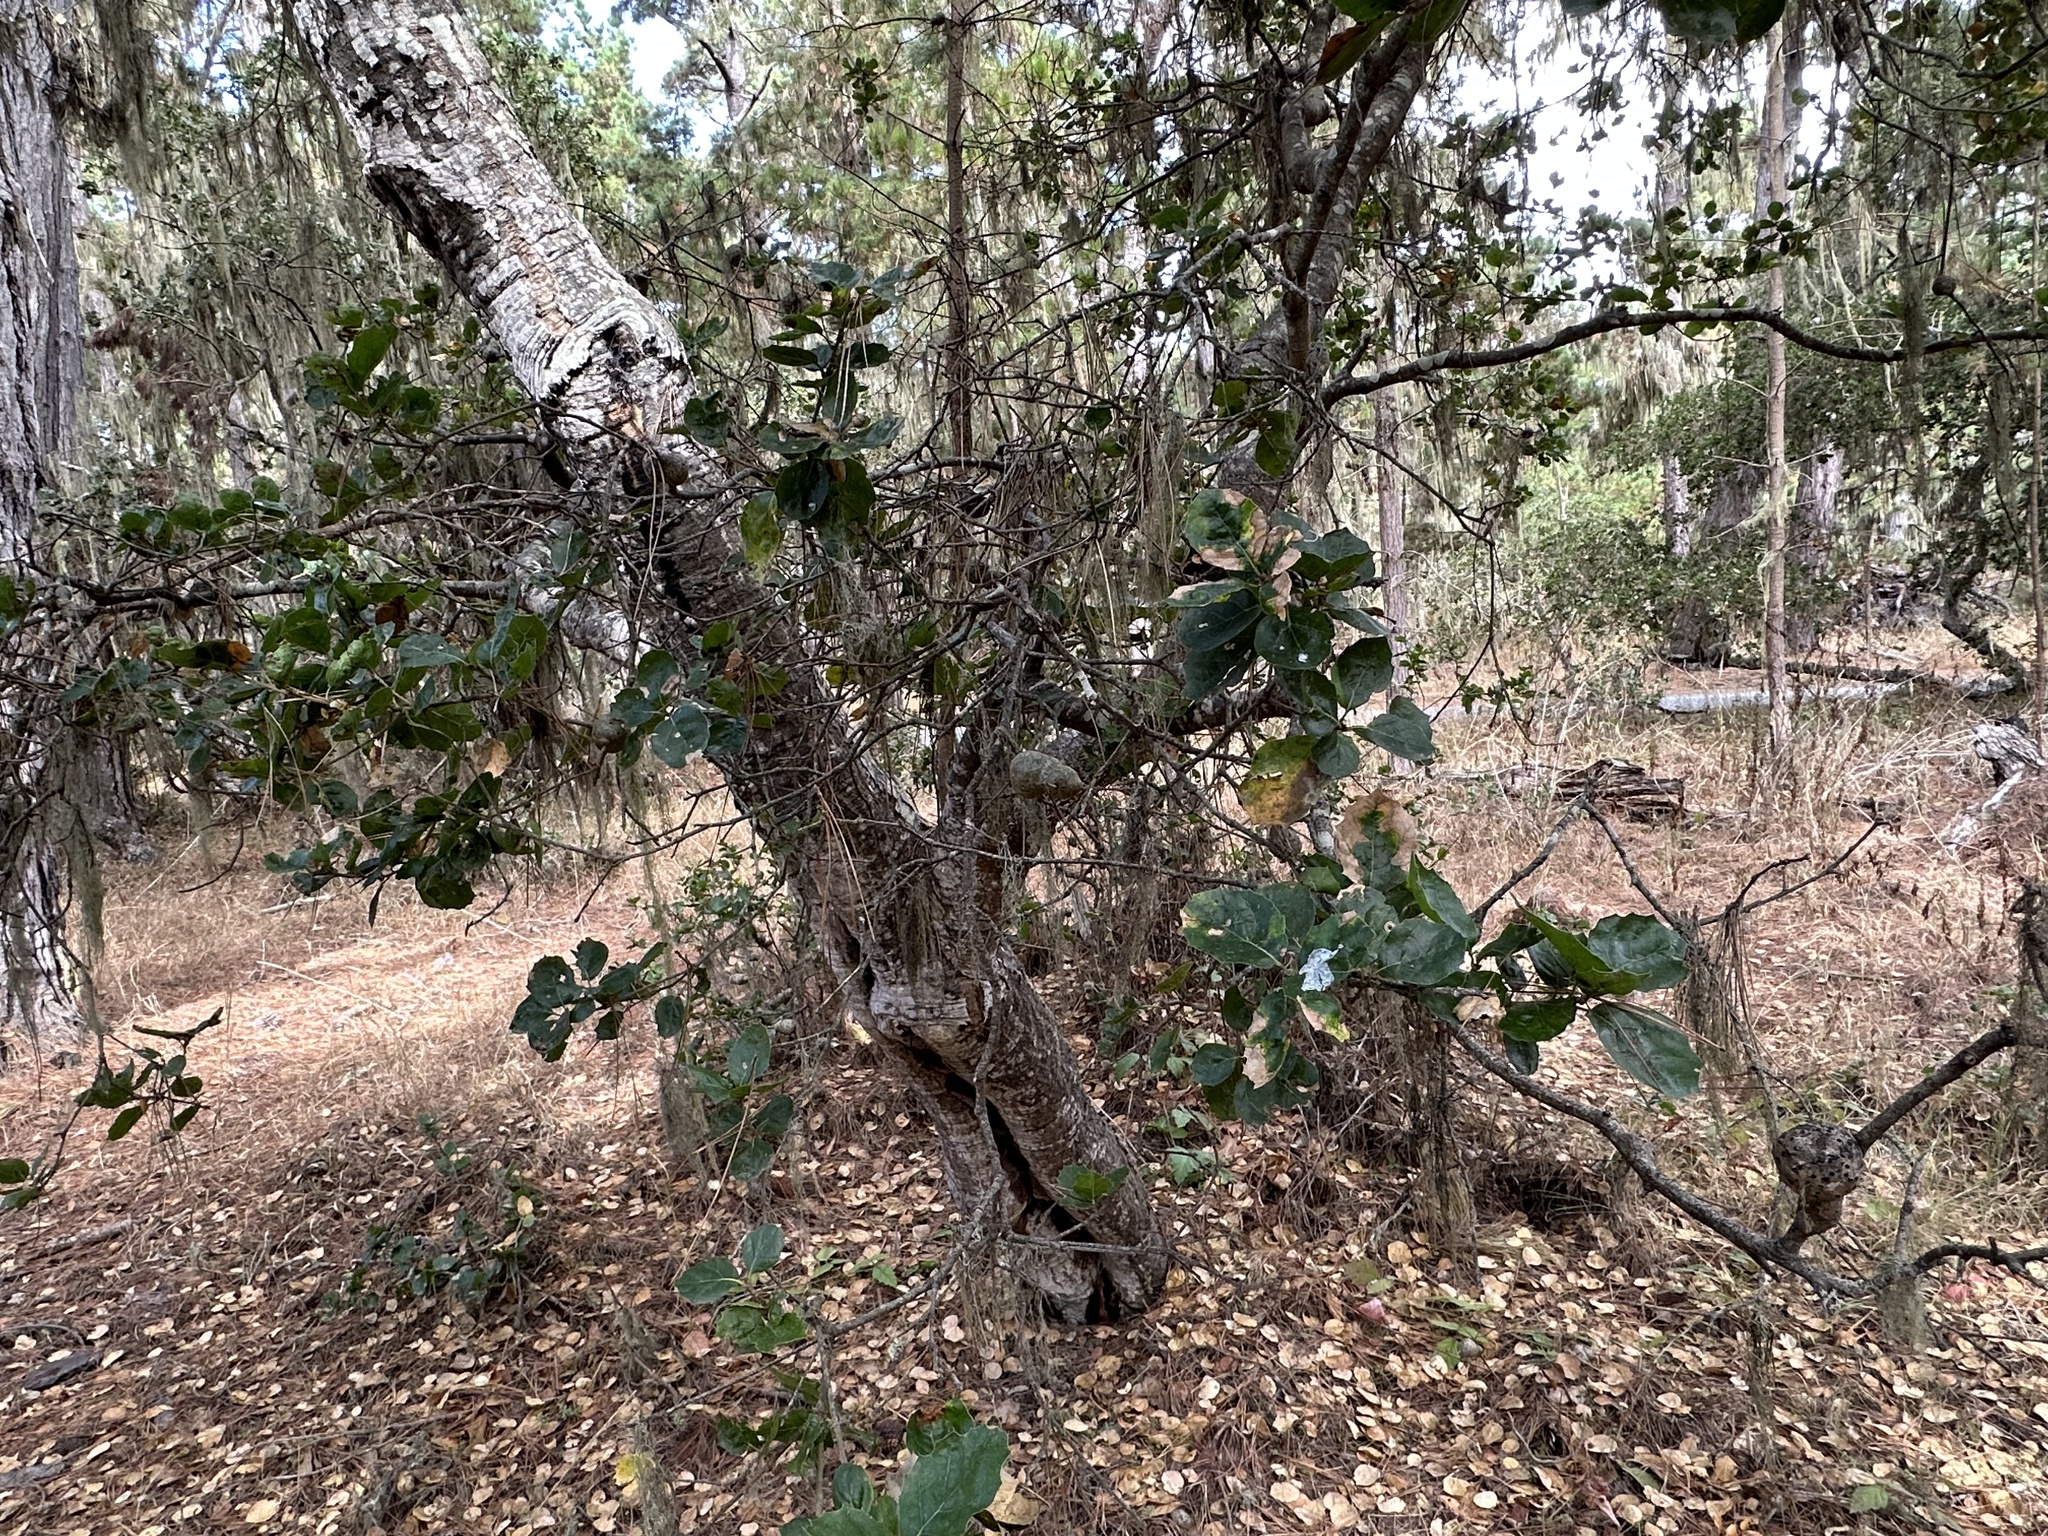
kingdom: Animalia
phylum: Arthropoda
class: Insecta
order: Hymenoptera
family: Cynipidae
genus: Callirhytis
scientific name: Callirhytis
